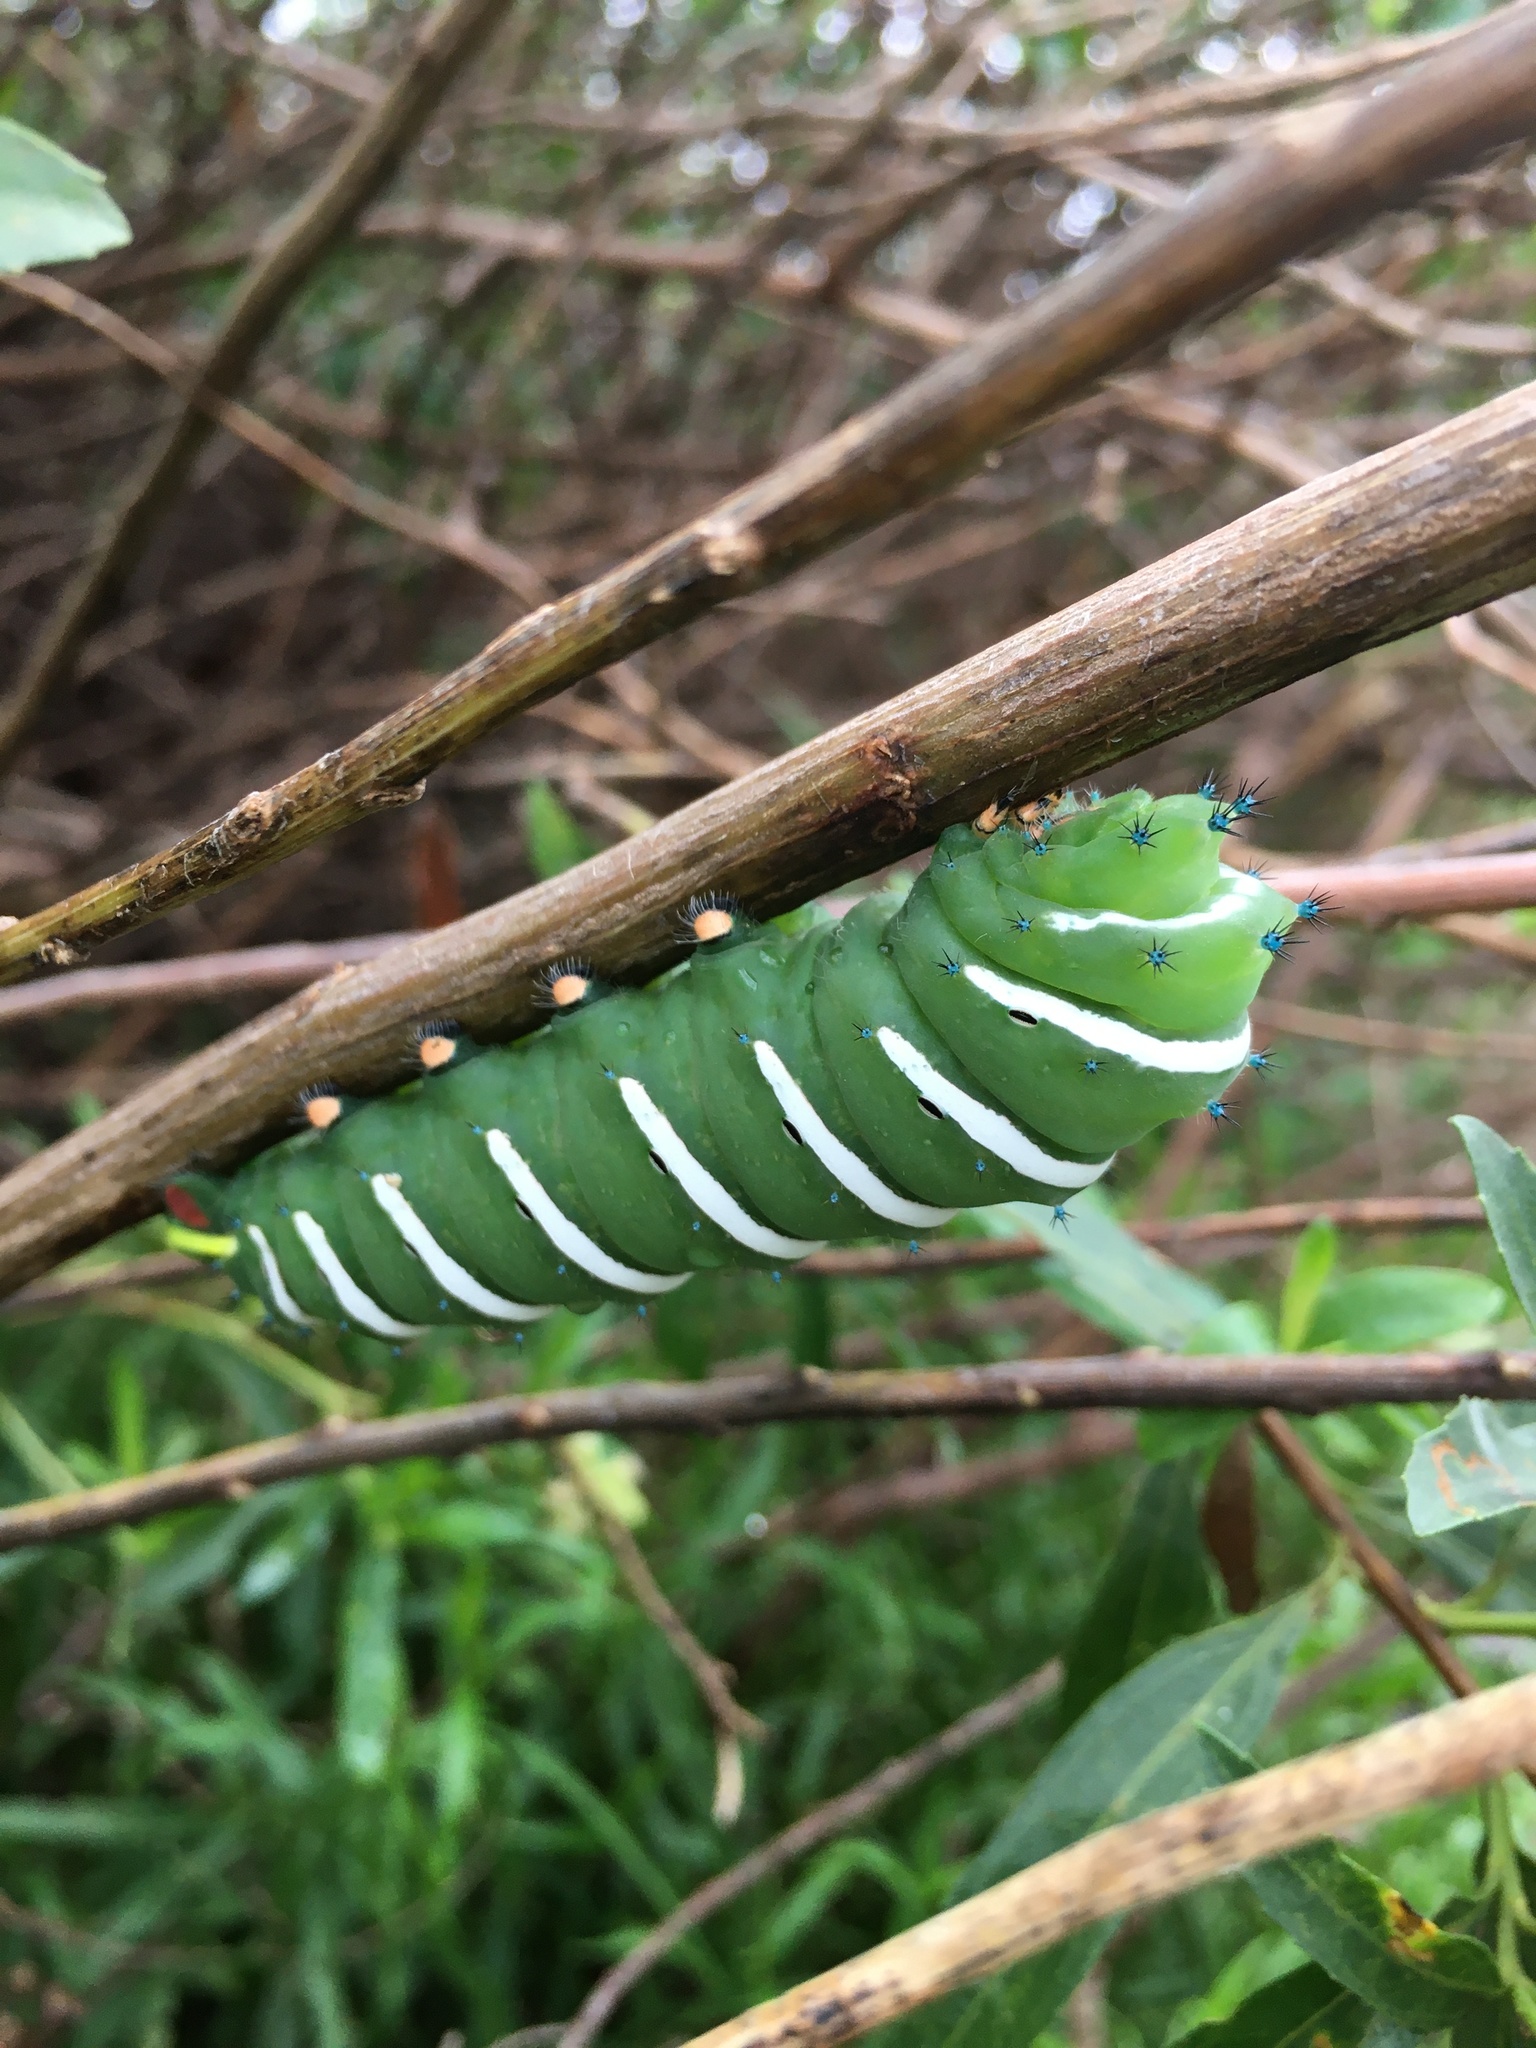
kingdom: Animalia
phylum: Arthropoda
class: Insecta
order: Lepidoptera
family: Saturniidae
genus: Rothschildia
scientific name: Rothschildia jacobaeae
